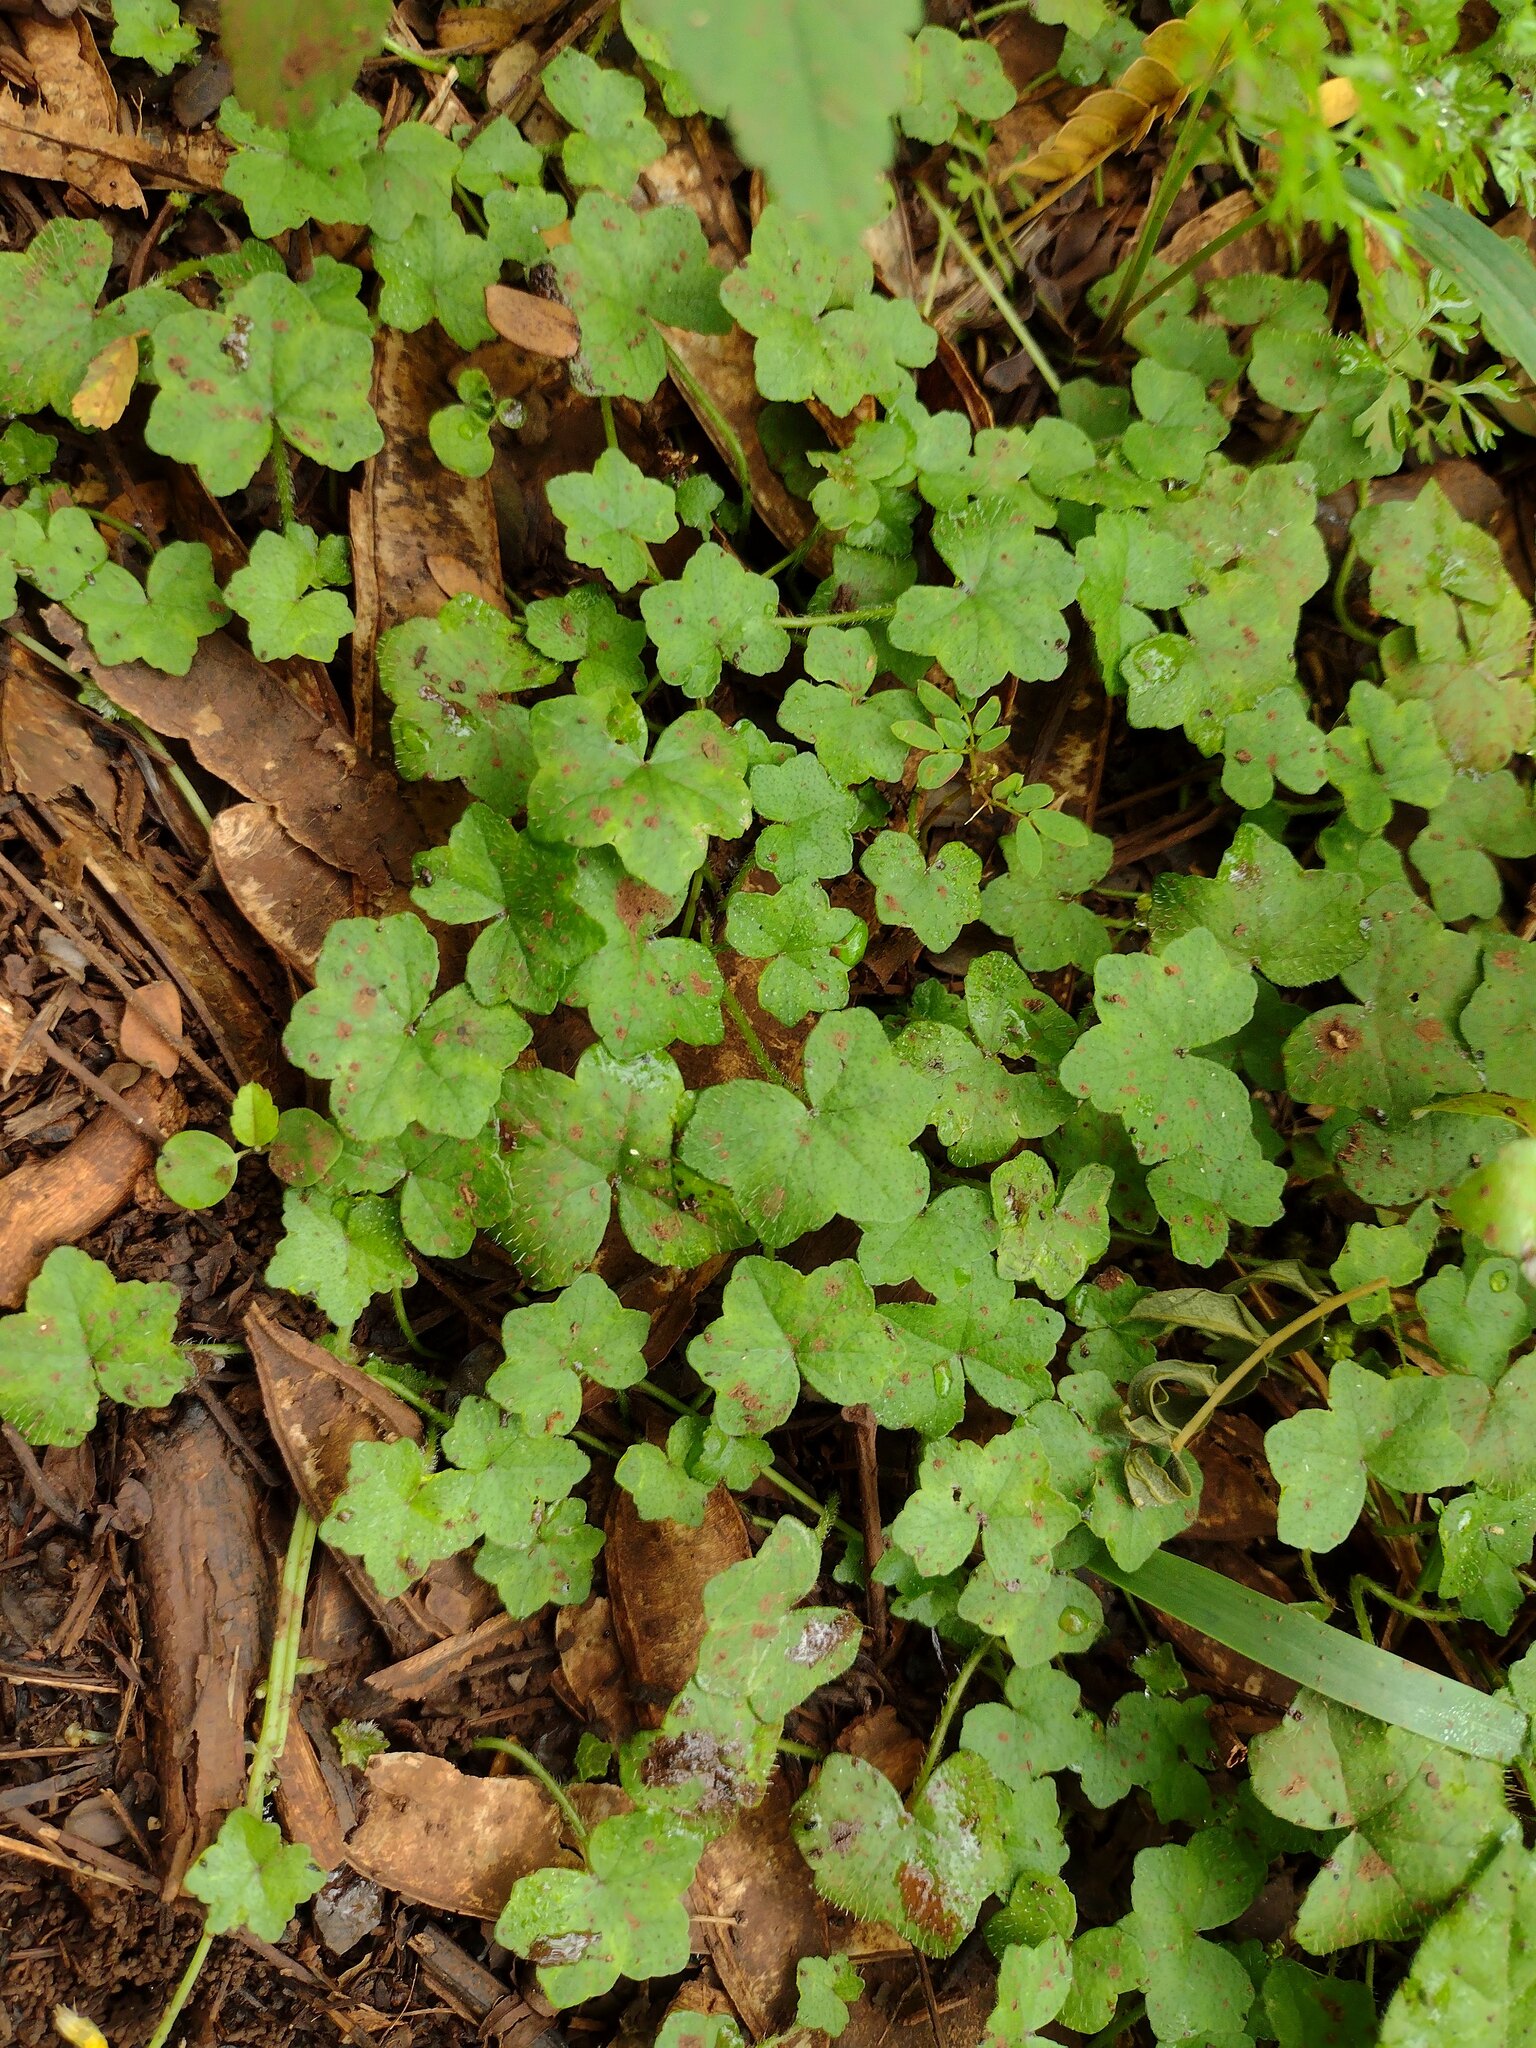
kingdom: Plantae
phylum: Tracheophyta
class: Magnoliopsida
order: Apiales
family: Araliaceae
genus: Hydrocotyle
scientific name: Hydrocotyle bowlesioides
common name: Largeleaf marshpennywort
